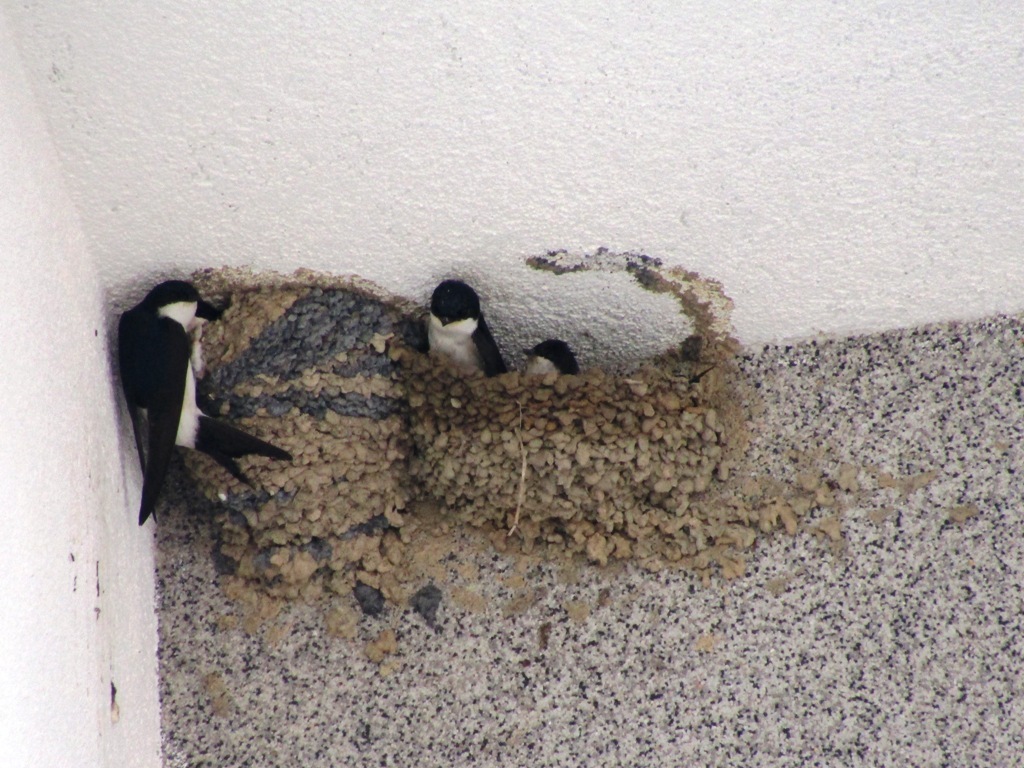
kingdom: Animalia
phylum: Chordata
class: Aves
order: Passeriformes
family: Hirundinidae
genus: Delichon
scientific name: Delichon urbicum
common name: Common house martin
